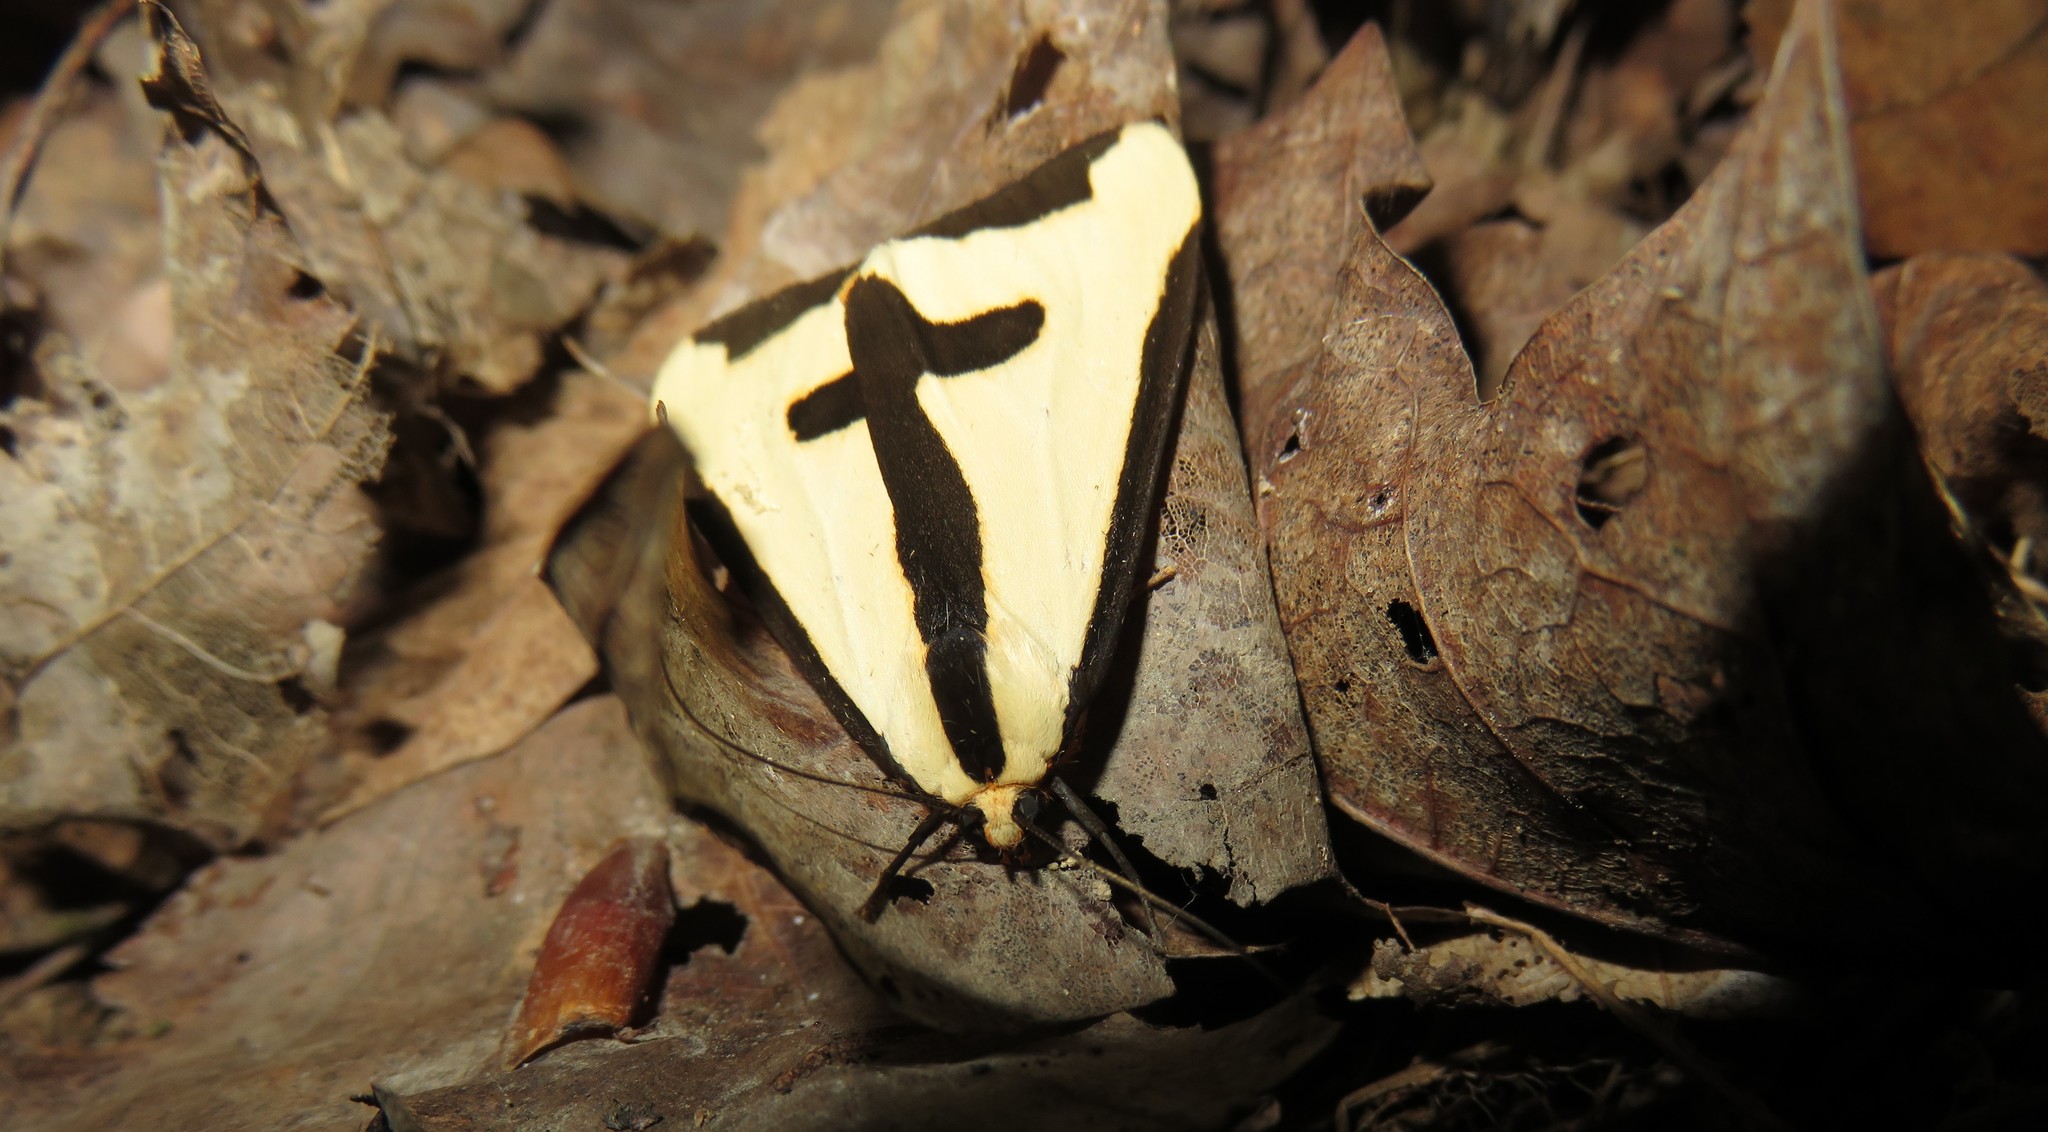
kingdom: Animalia
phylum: Arthropoda
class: Insecta
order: Lepidoptera
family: Erebidae
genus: Haploa
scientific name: Haploa clymene
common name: Clymene moth
